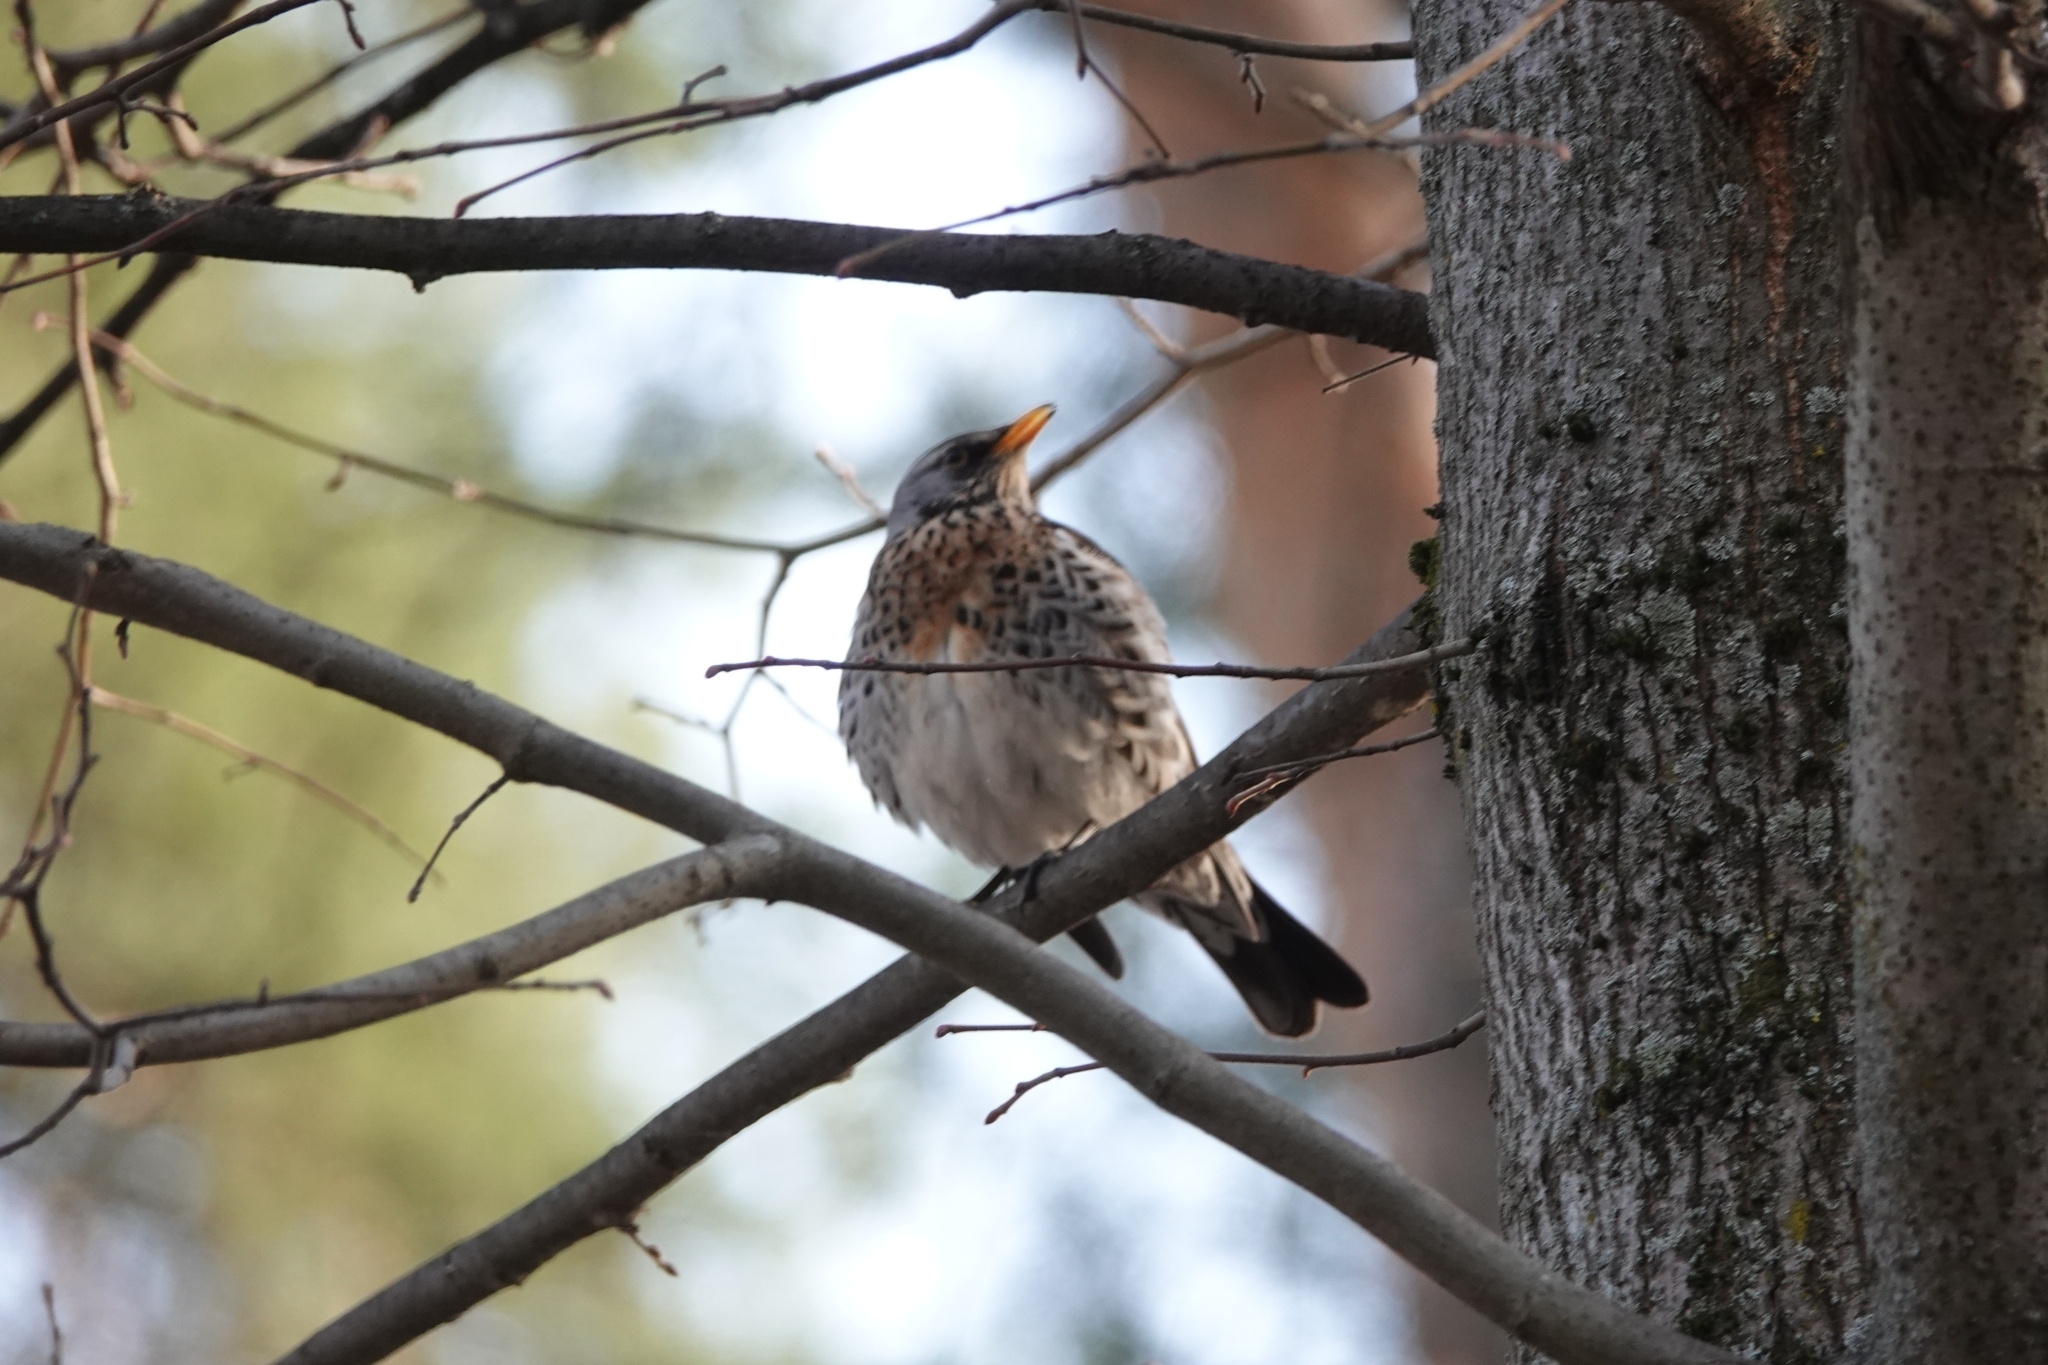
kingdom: Animalia
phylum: Chordata
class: Aves
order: Passeriformes
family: Turdidae
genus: Turdus
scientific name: Turdus pilaris
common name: Fieldfare
